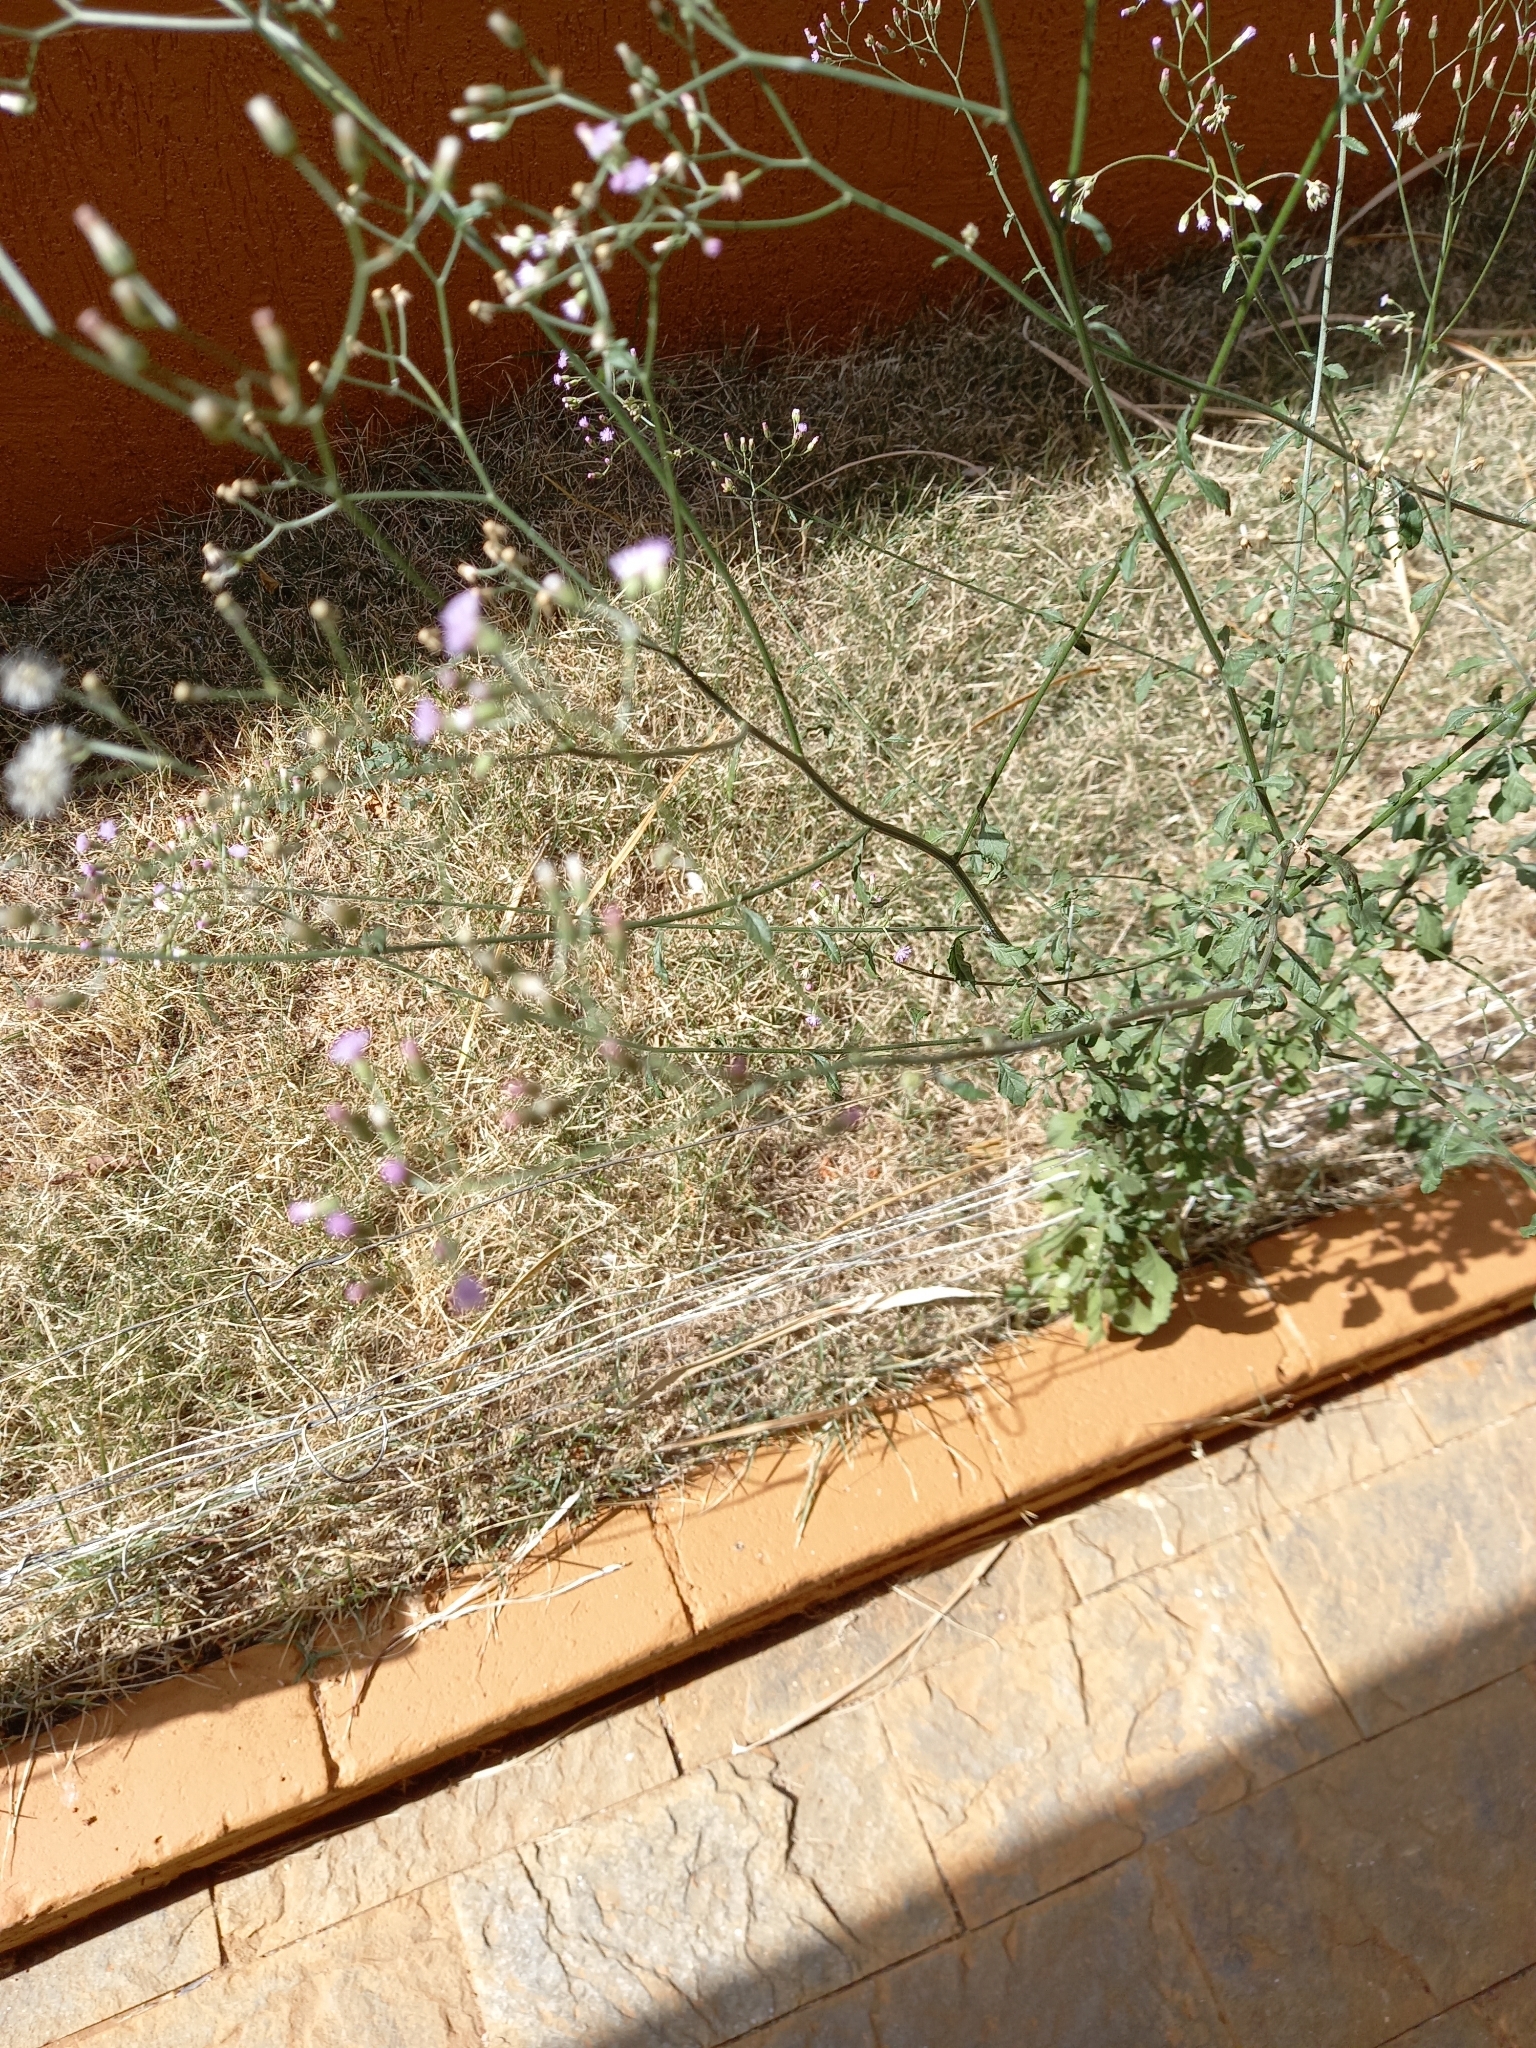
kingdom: Plantae
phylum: Tracheophyta
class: Magnoliopsida
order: Asterales
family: Asteraceae
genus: Cyanthillium
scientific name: Cyanthillium cinereum
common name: Little ironweed
